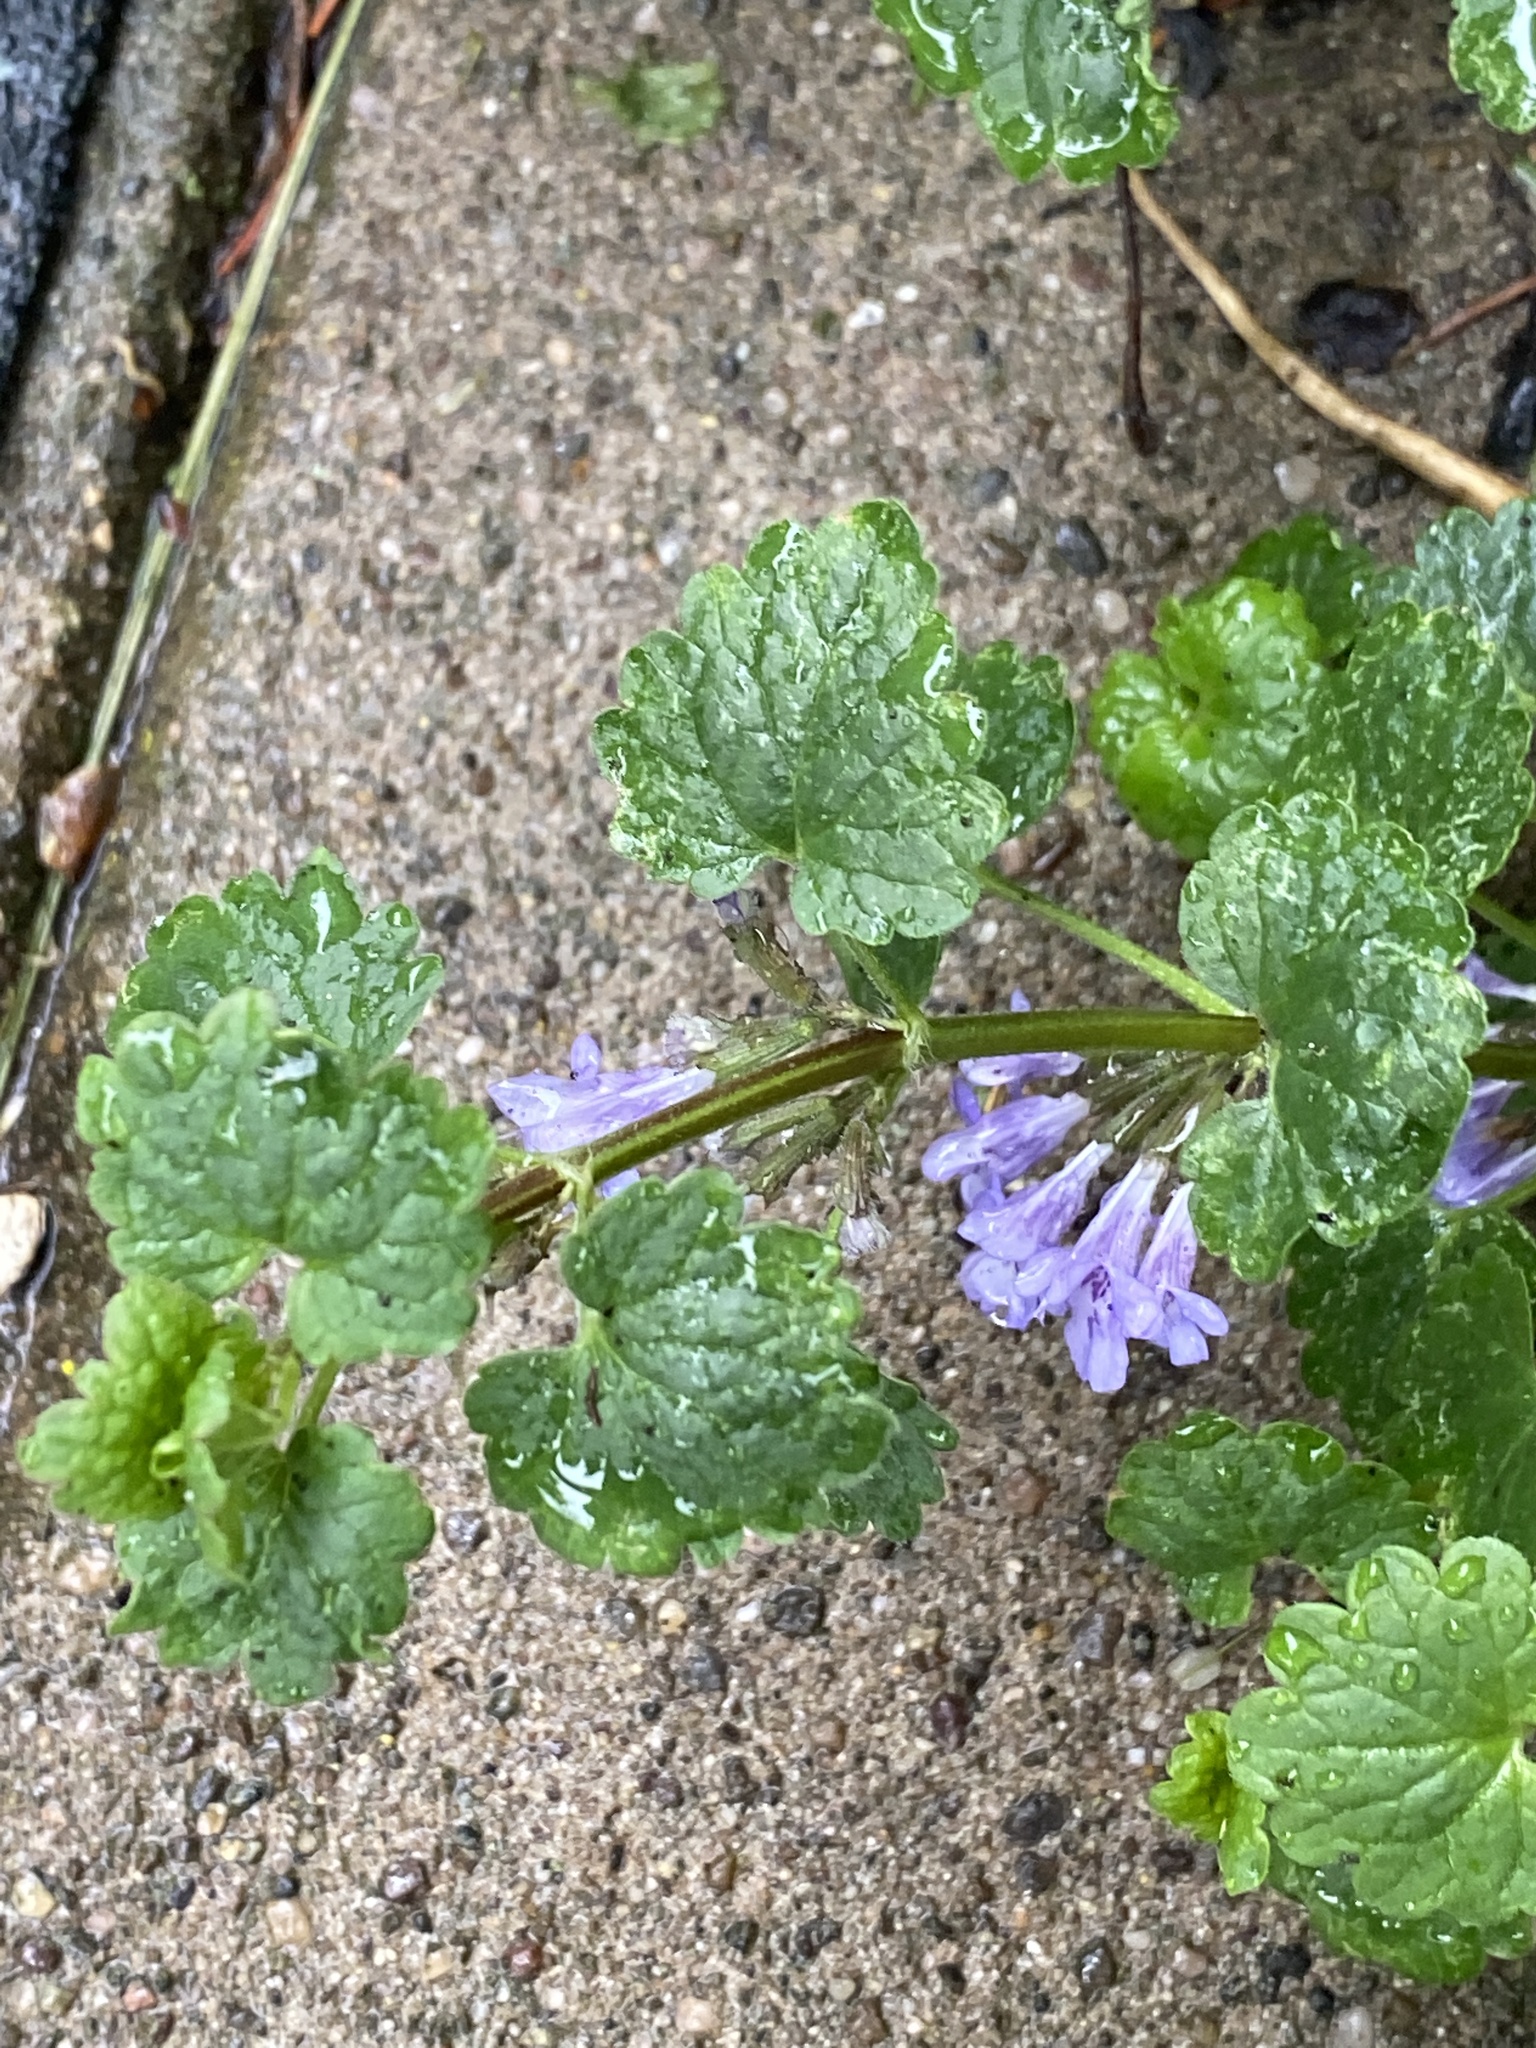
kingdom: Plantae
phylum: Tracheophyta
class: Magnoliopsida
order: Lamiales
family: Lamiaceae
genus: Glechoma
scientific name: Glechoma hederacea
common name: Ground ivy
